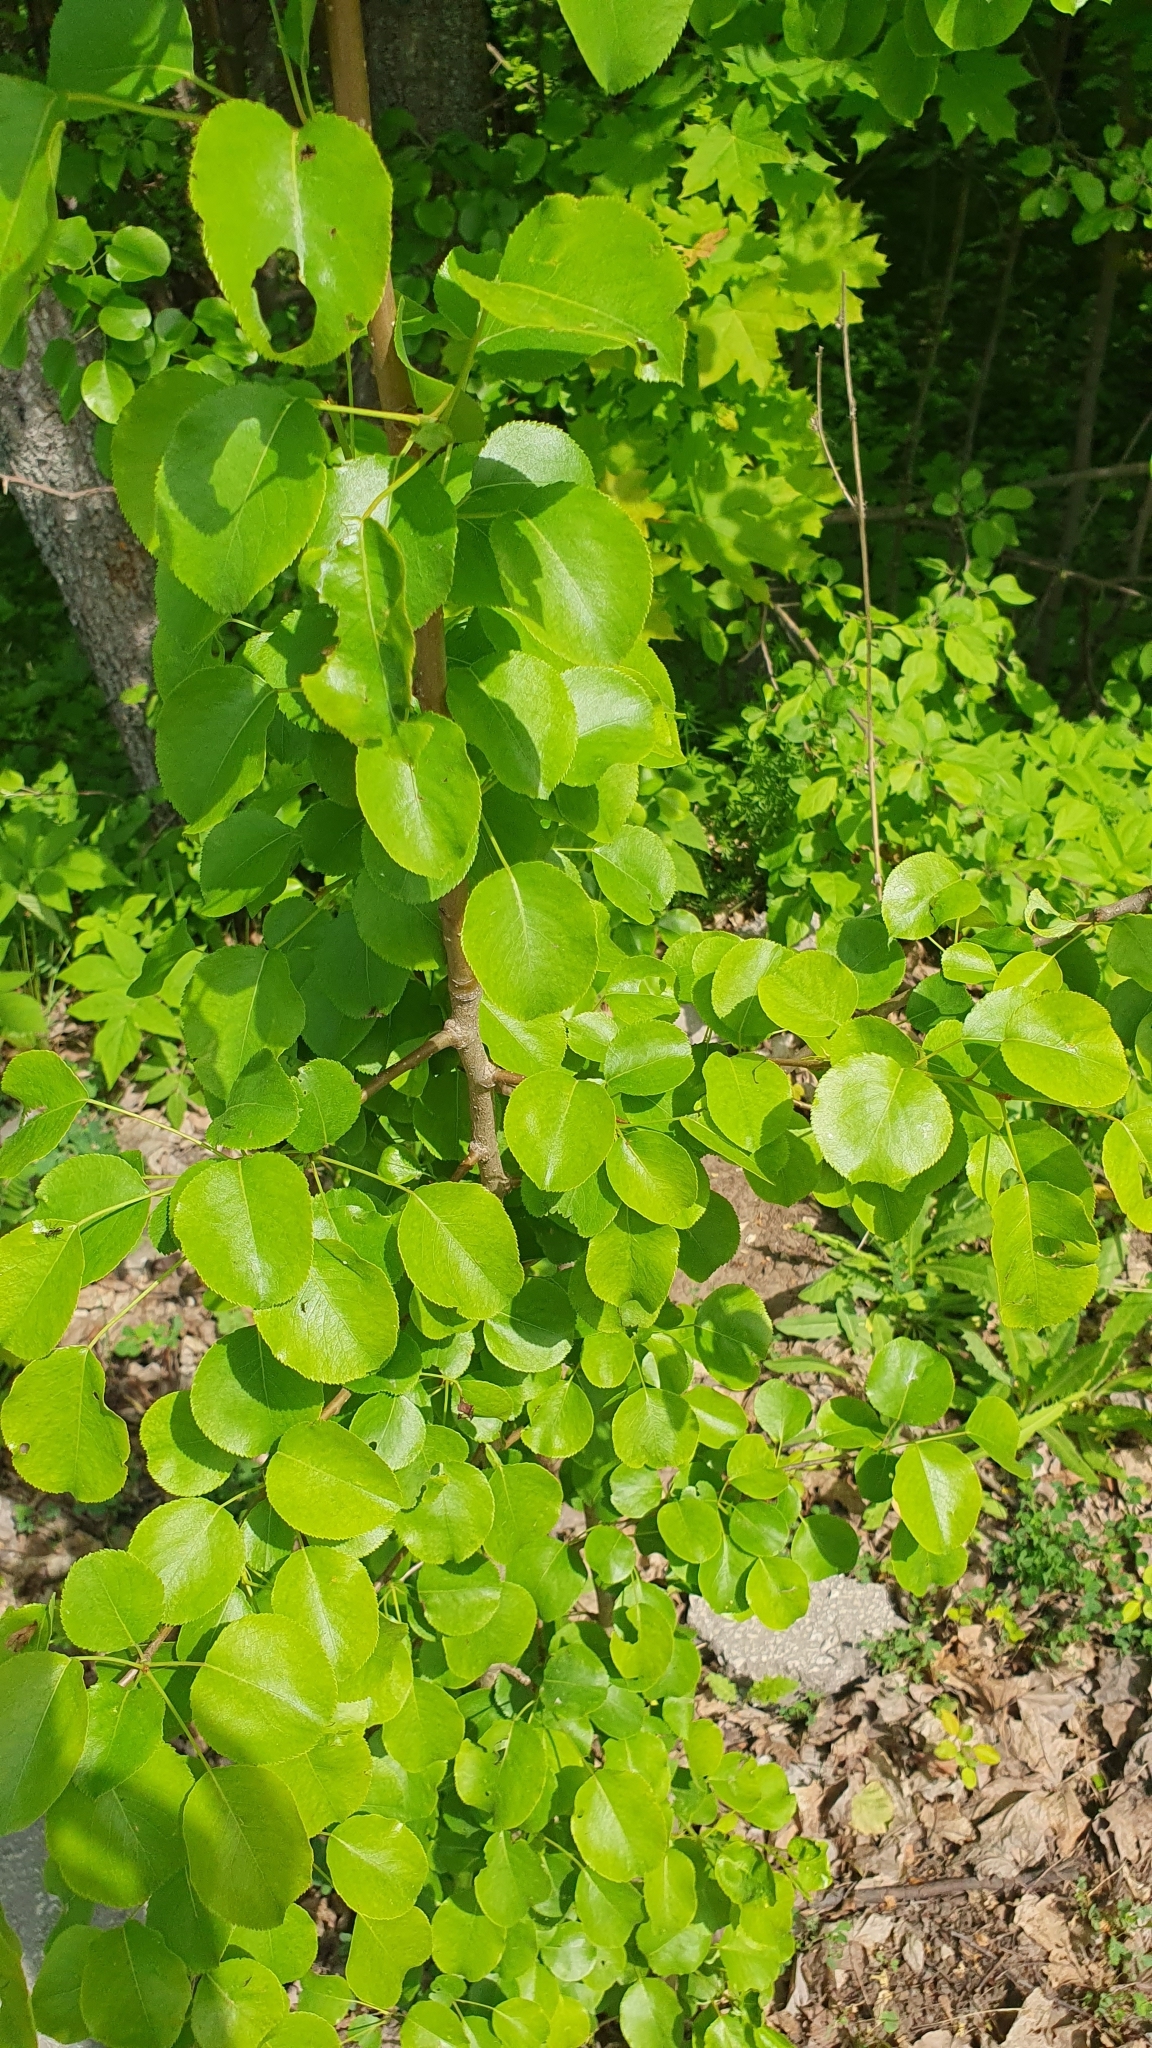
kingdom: Plantae
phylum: Tracheophyta
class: Magnoliopsida
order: Rosales
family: Rosaceae
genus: Pyrus
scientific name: Pyrus communis
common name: Pear
